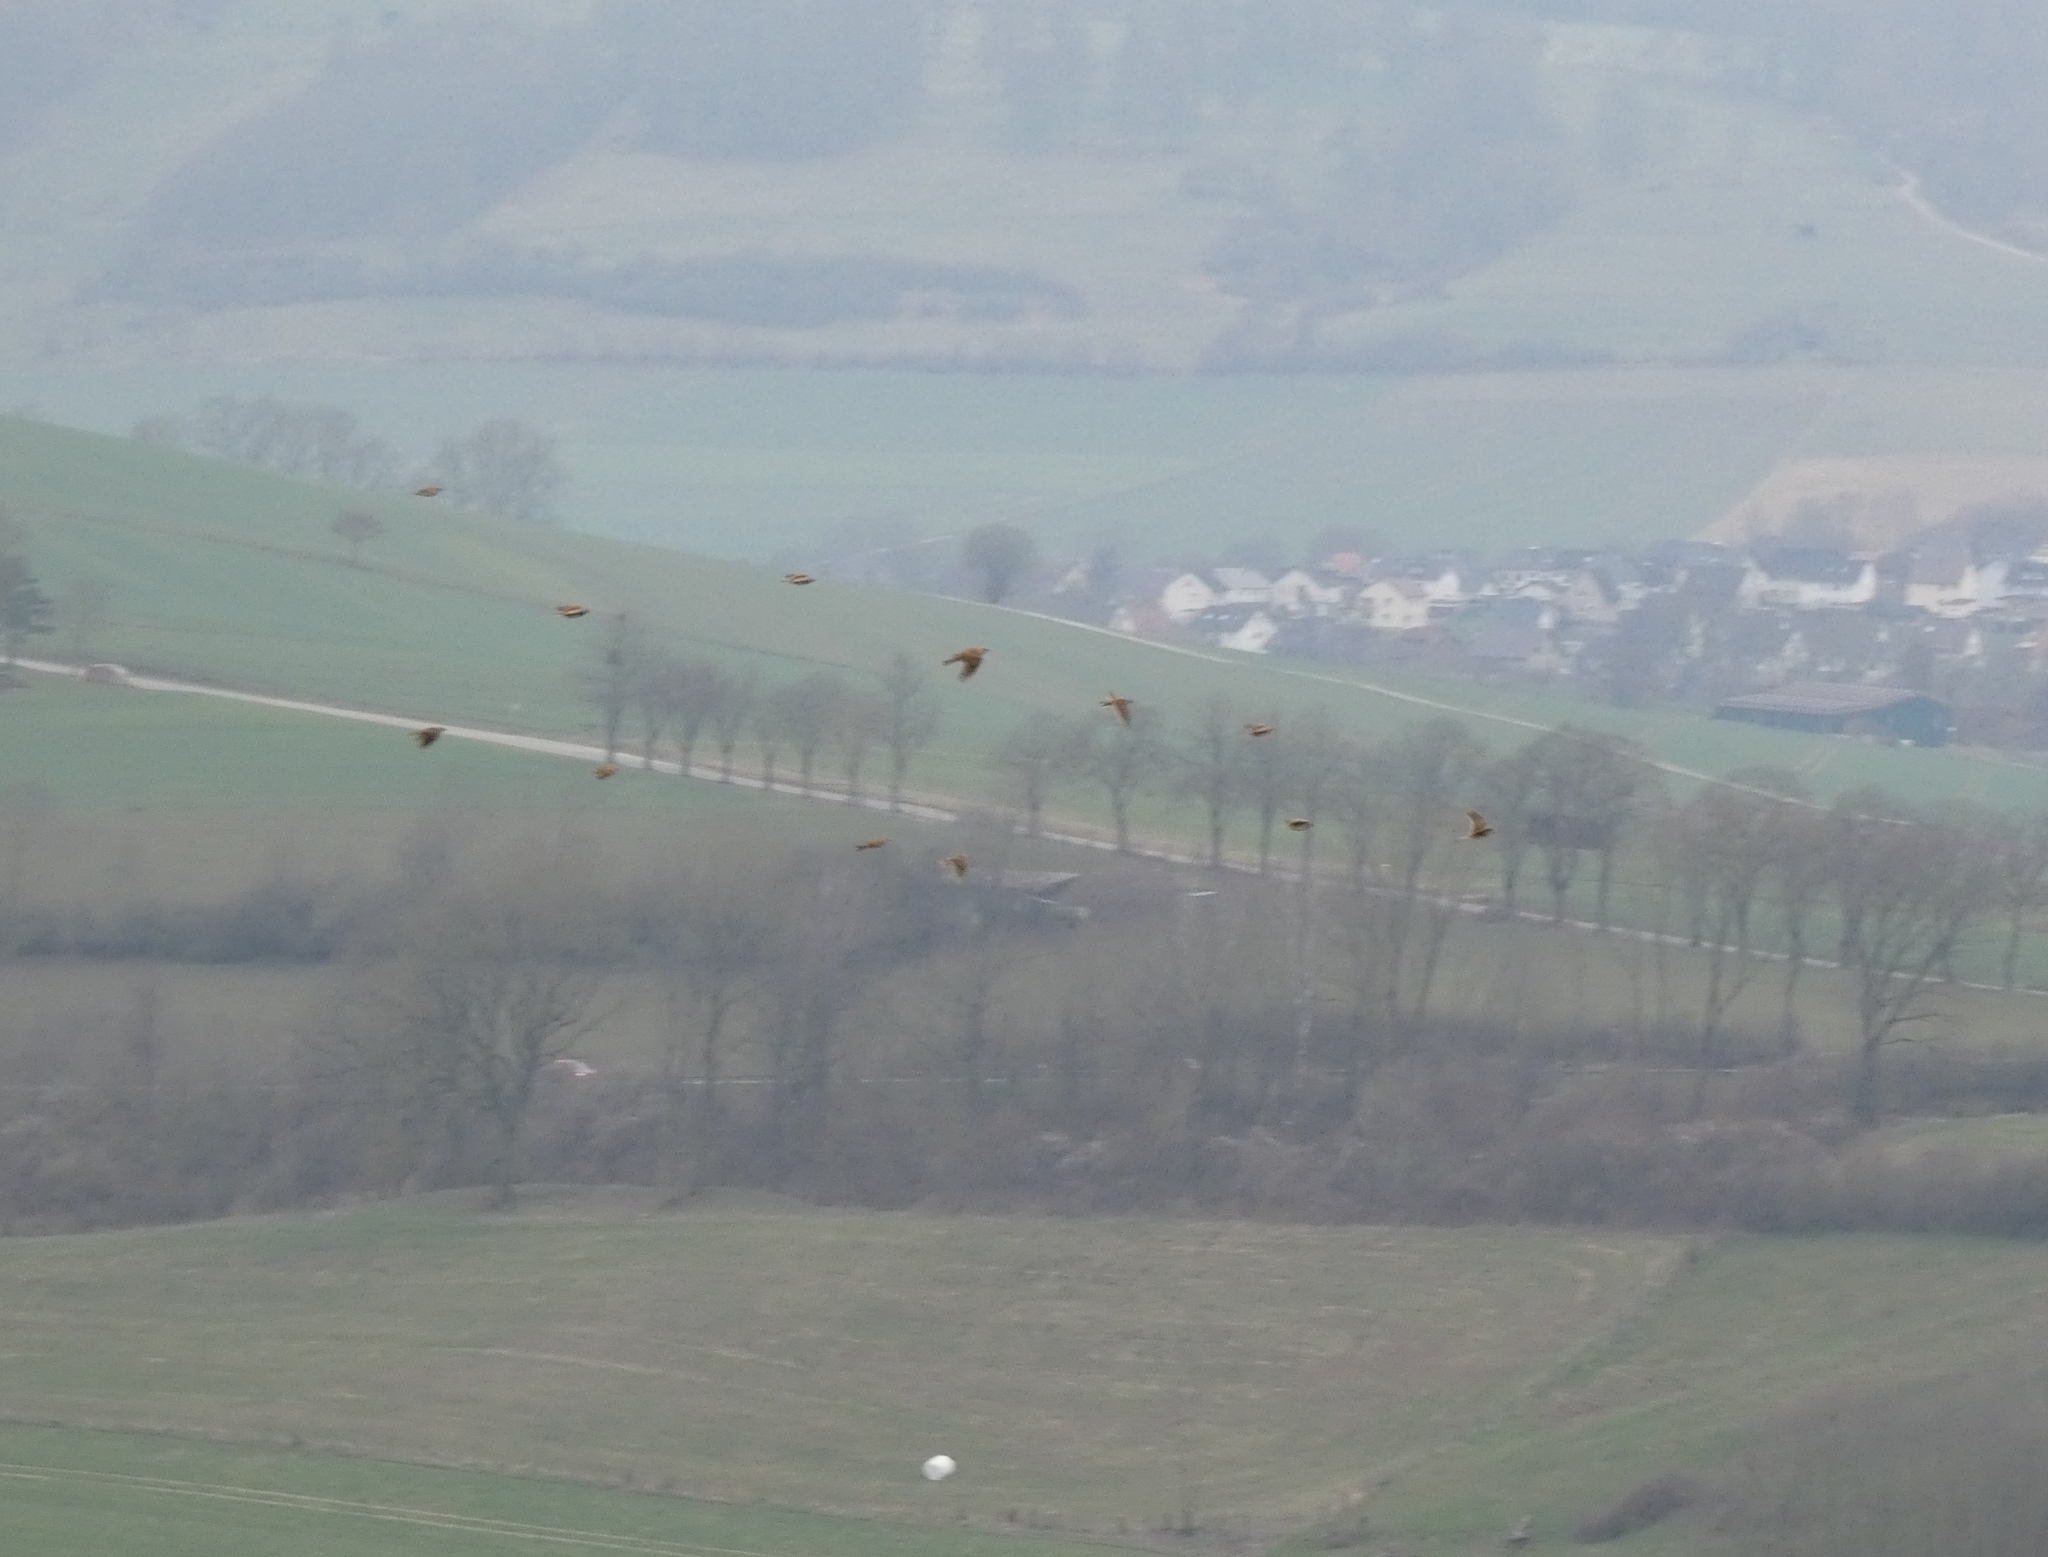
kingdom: Animalia
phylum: Chordata
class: Aves
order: Passeriformes
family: Alaudidae
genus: Alauda
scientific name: Alauda arvensis
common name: Eurasian skylark
